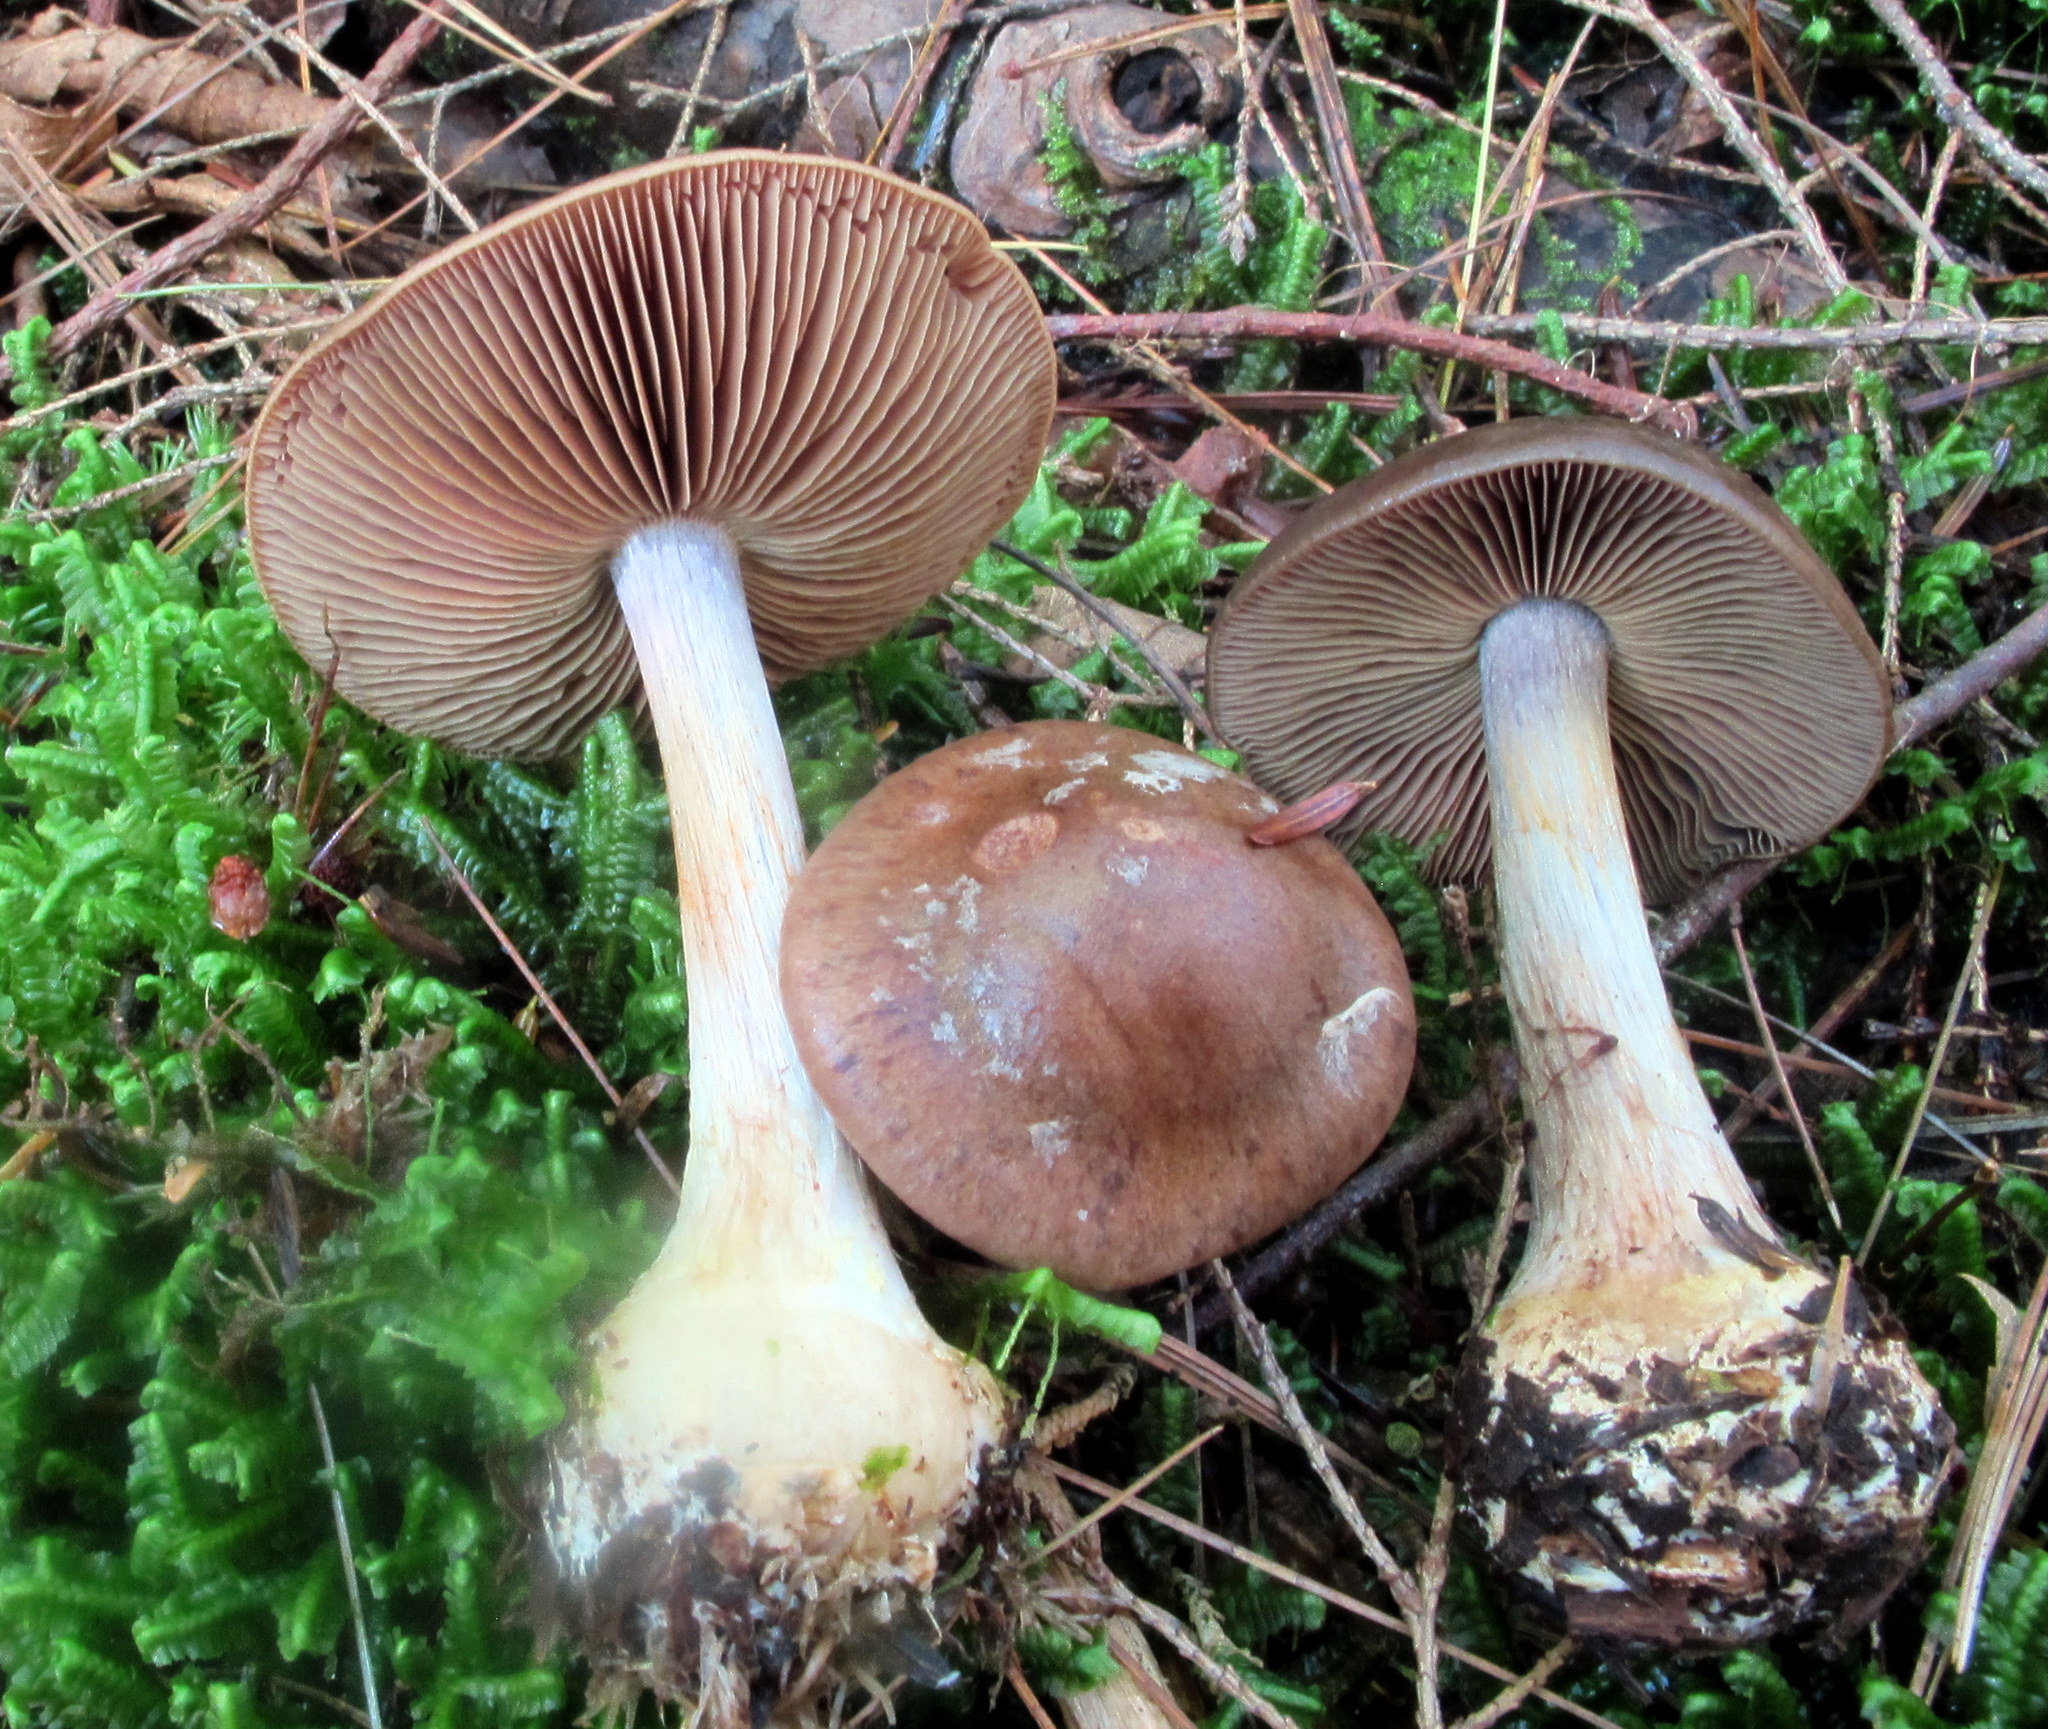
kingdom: Fungi
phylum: Basidiomycota
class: Agaricomycetes
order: Agaricales
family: Cortinariaceae
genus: Thaxterogaster
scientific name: Thaxterogaster scaurus
